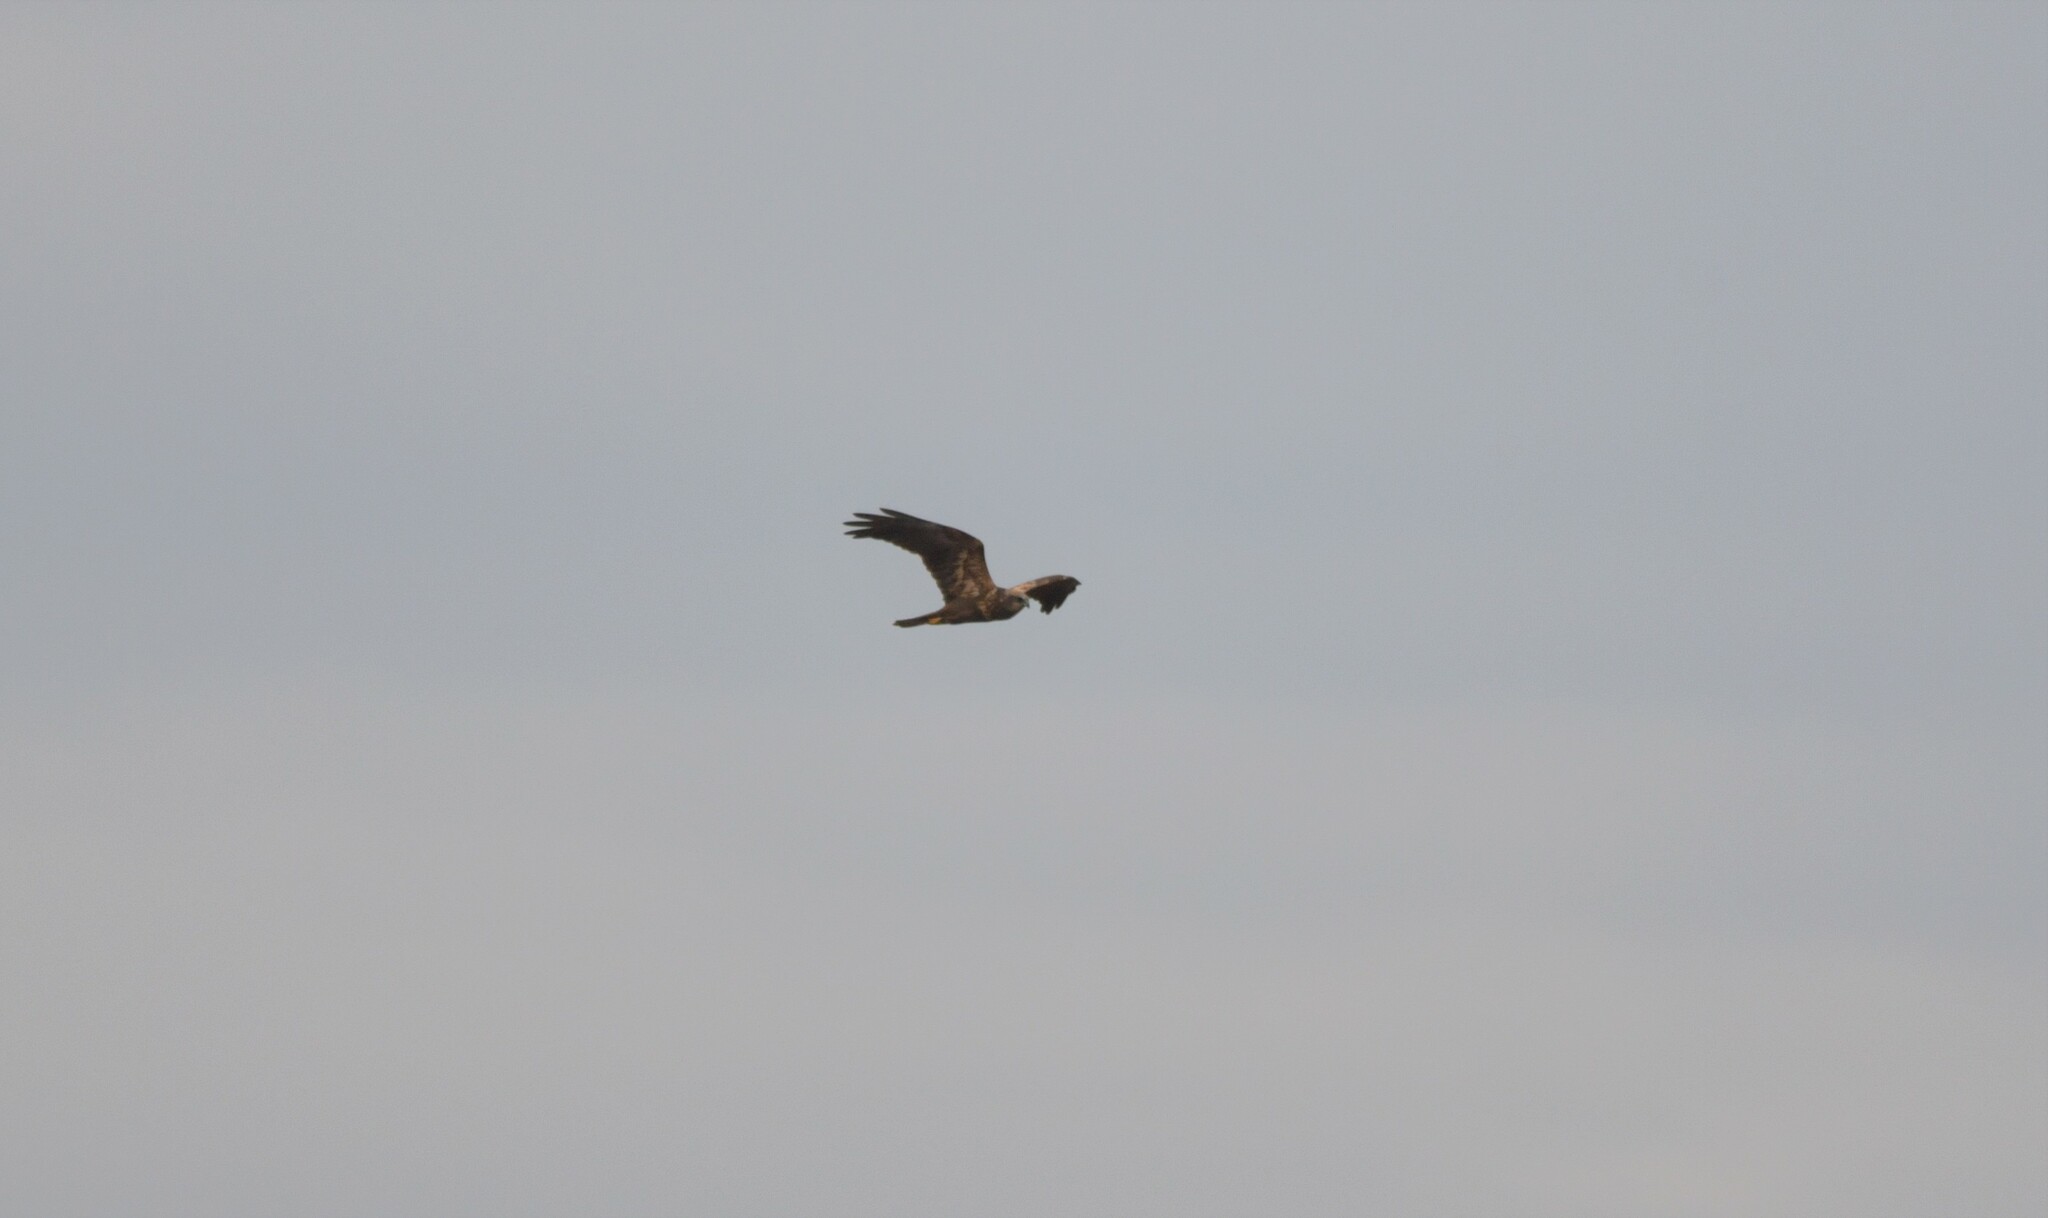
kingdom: Animalia
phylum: Chordata
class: Aves
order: Accipitriformes
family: Accipitridae
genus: Circus
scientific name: Circus aeruginosus
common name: Western marsh harrier
